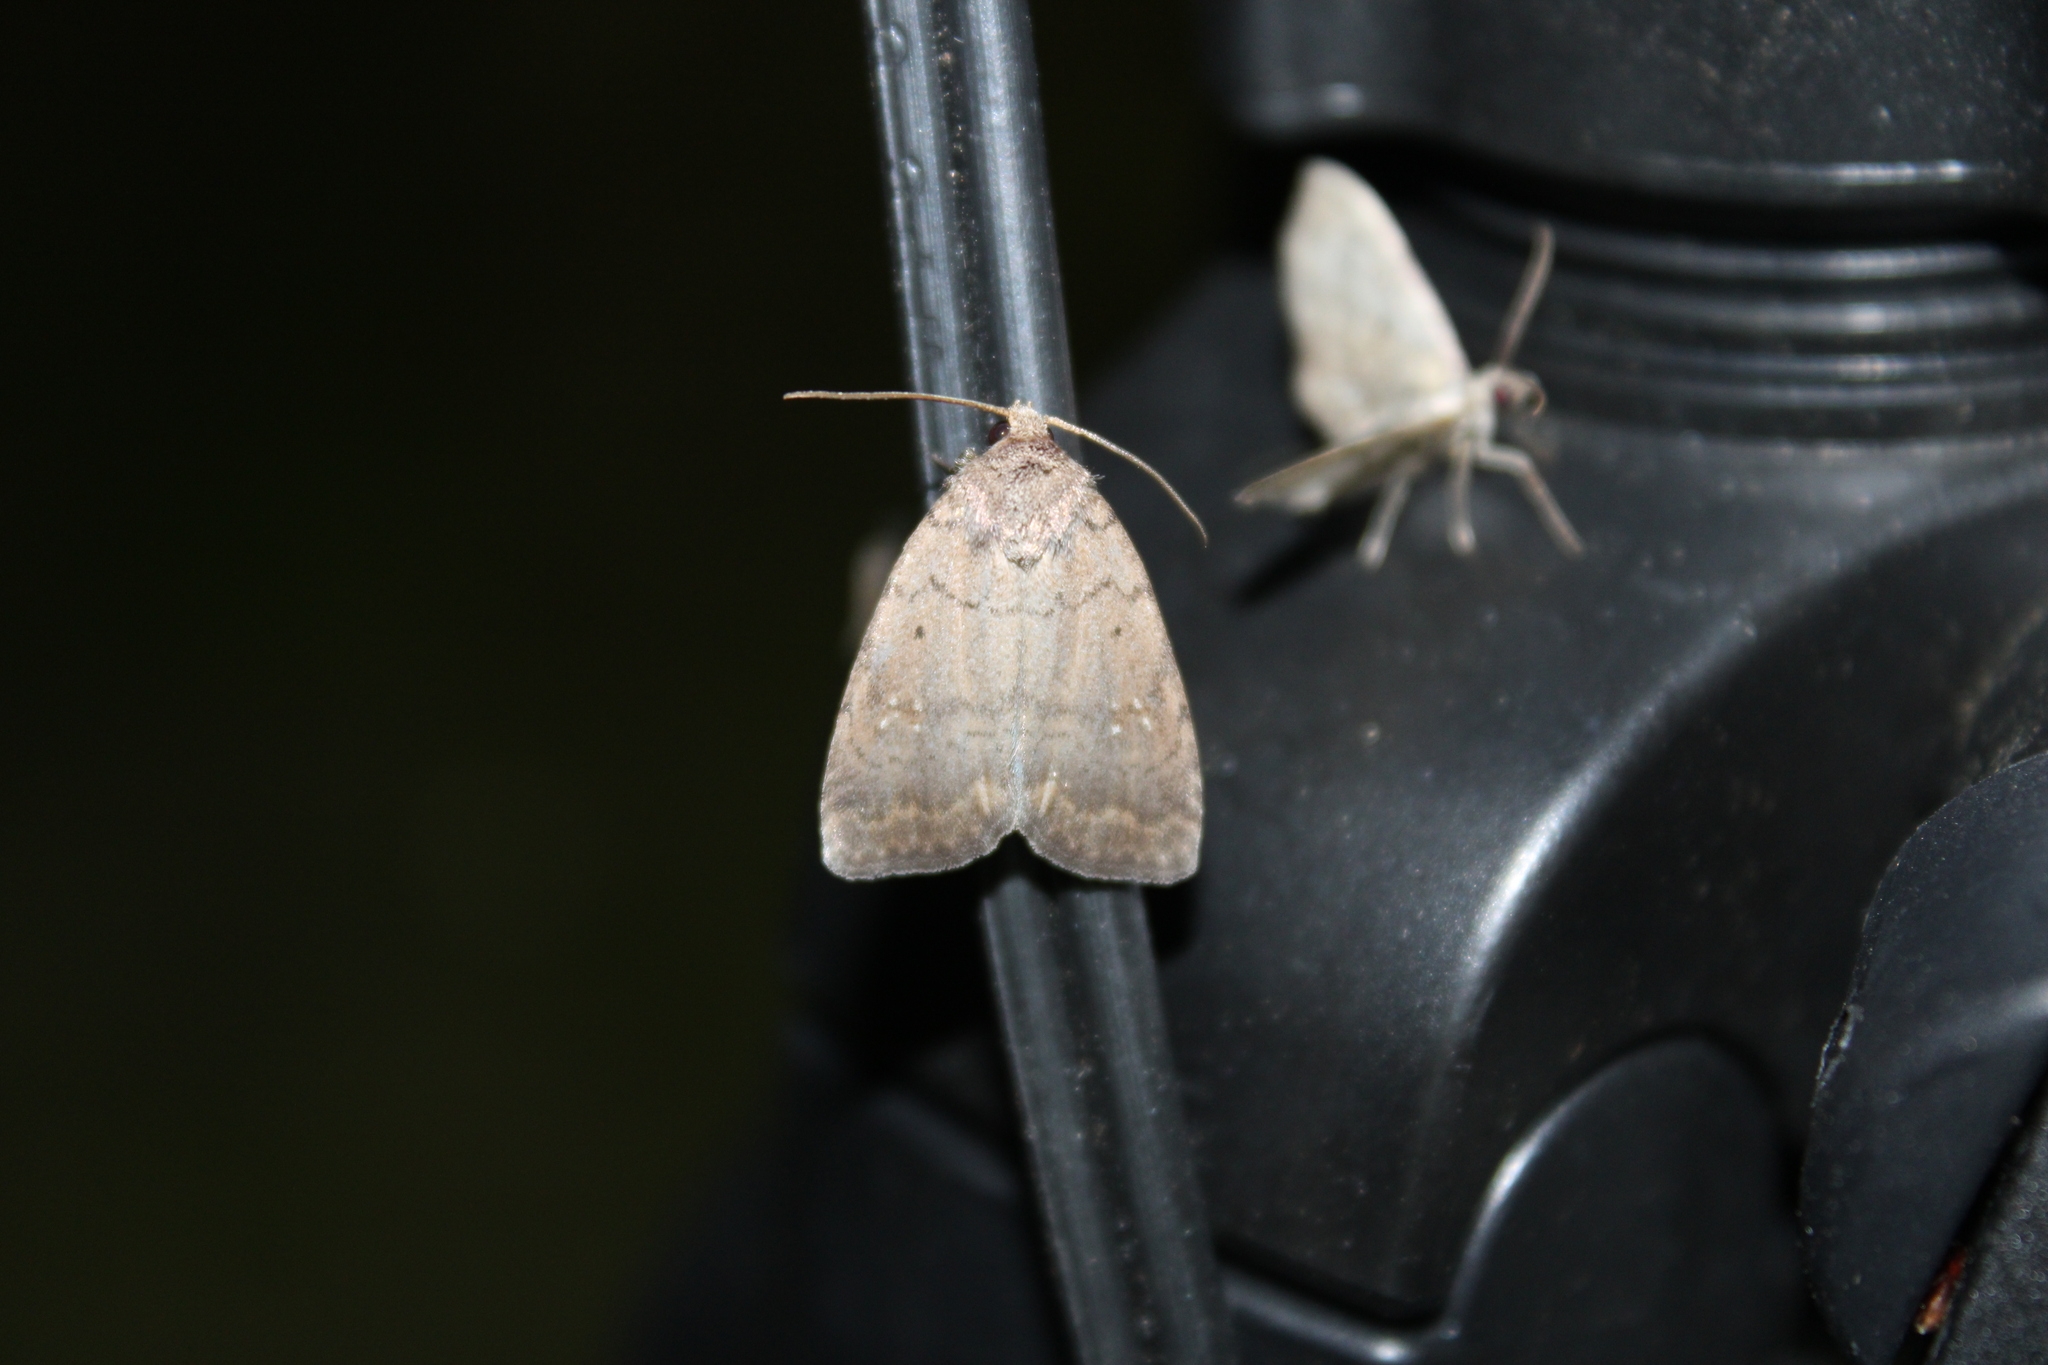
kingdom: Animalia
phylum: Arthropoda
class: Insecta
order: Lepidoptera
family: Noctuidae
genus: Athetis
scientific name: Athetis tarda
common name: Slowpoke moth
